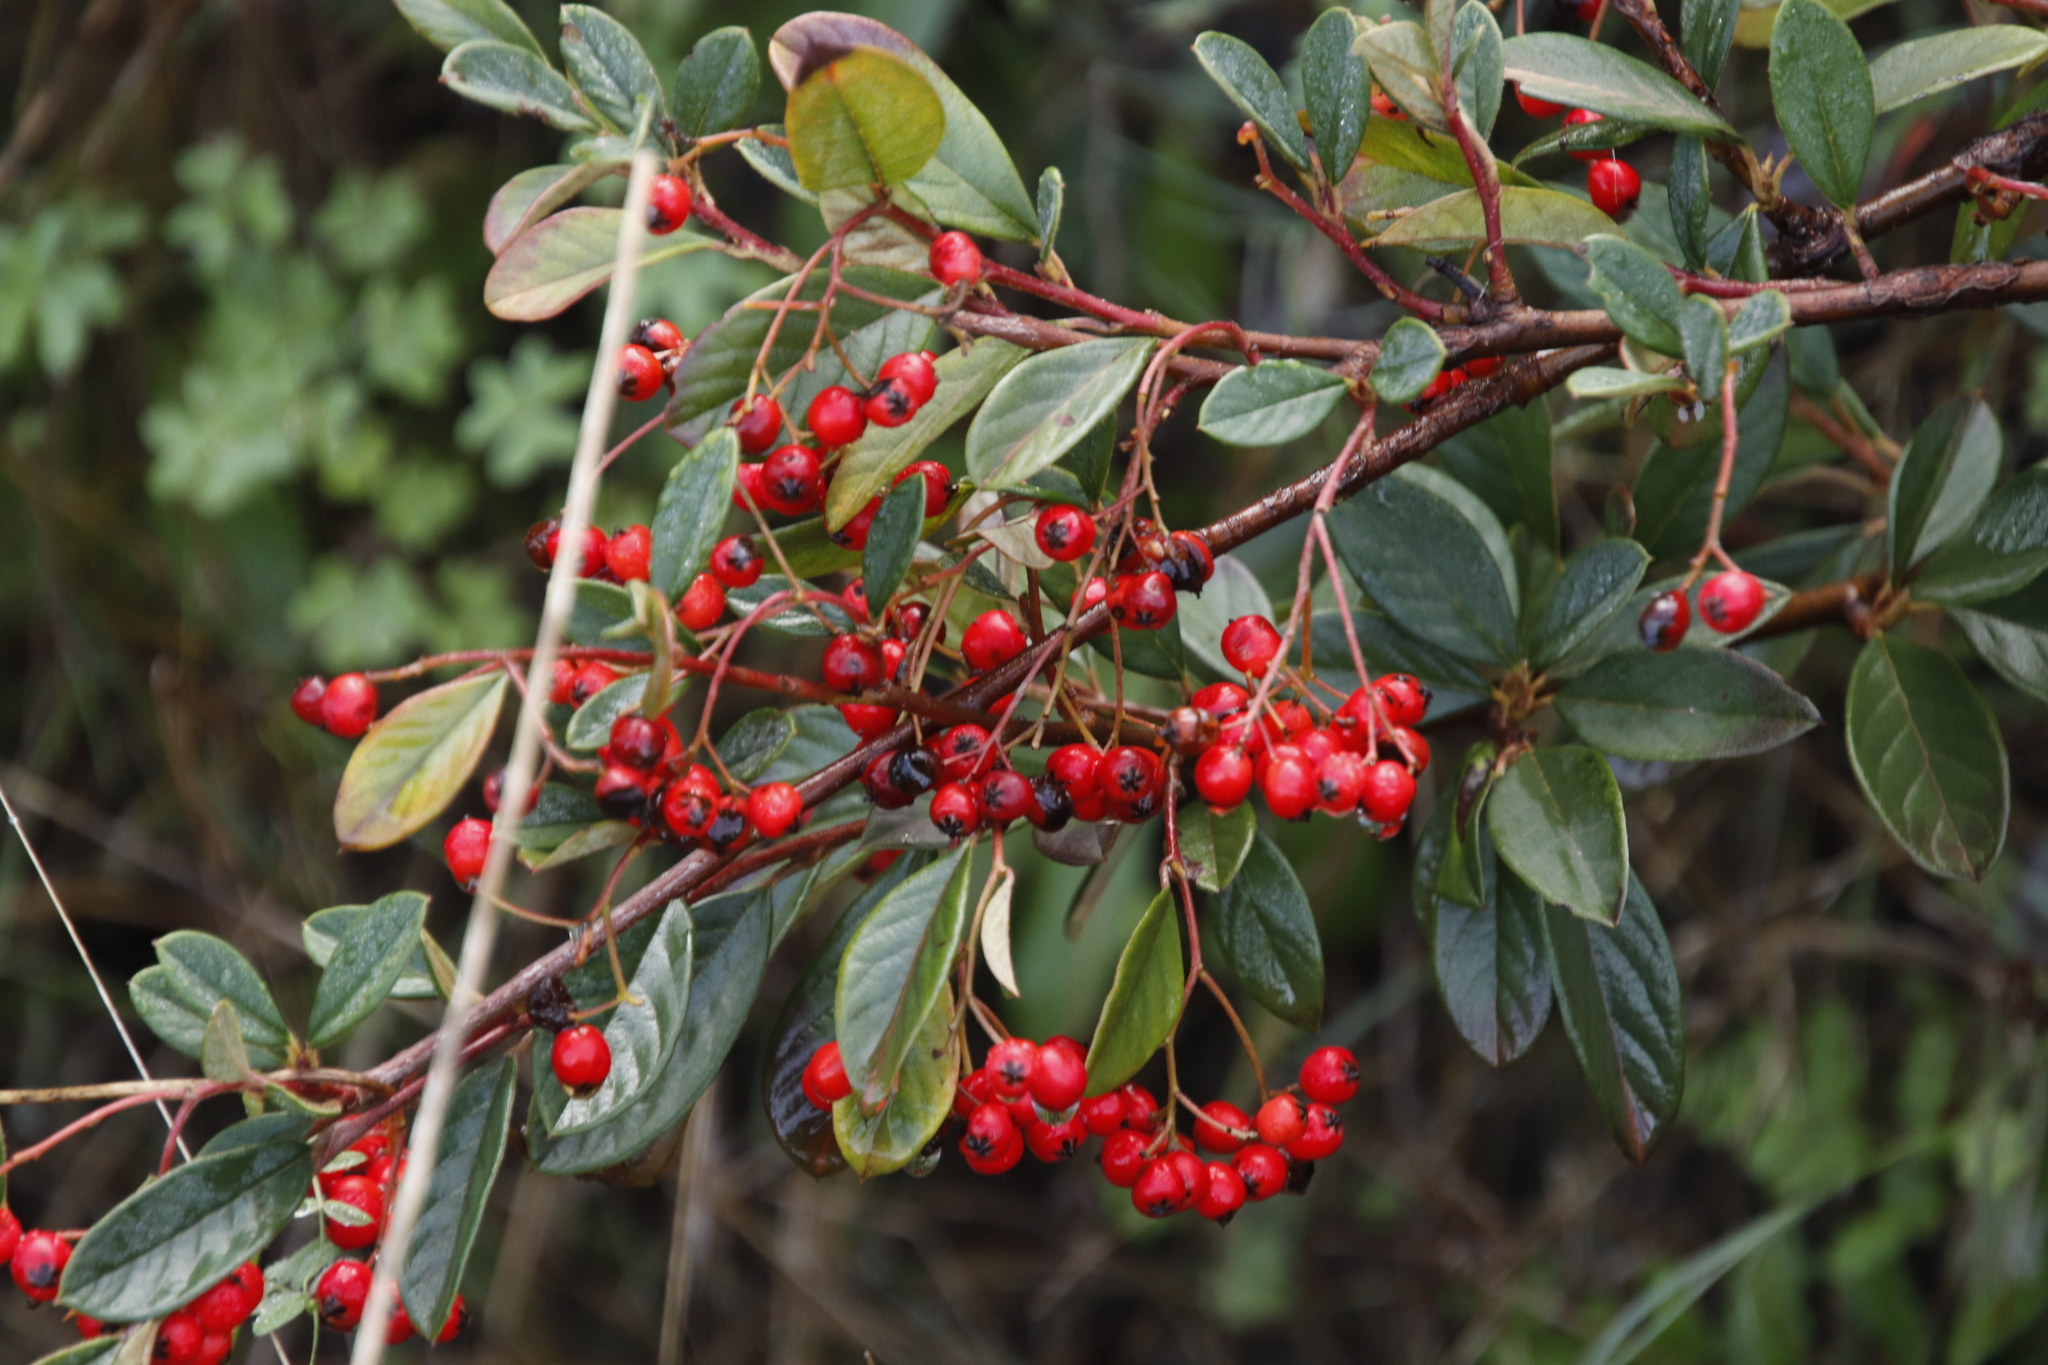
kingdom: Plantae
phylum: Tracheophyta
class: Magnoliopsida
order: Rosales
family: Rosaceae
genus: Cotoneaster
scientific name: Cotoneaster coriaceus
